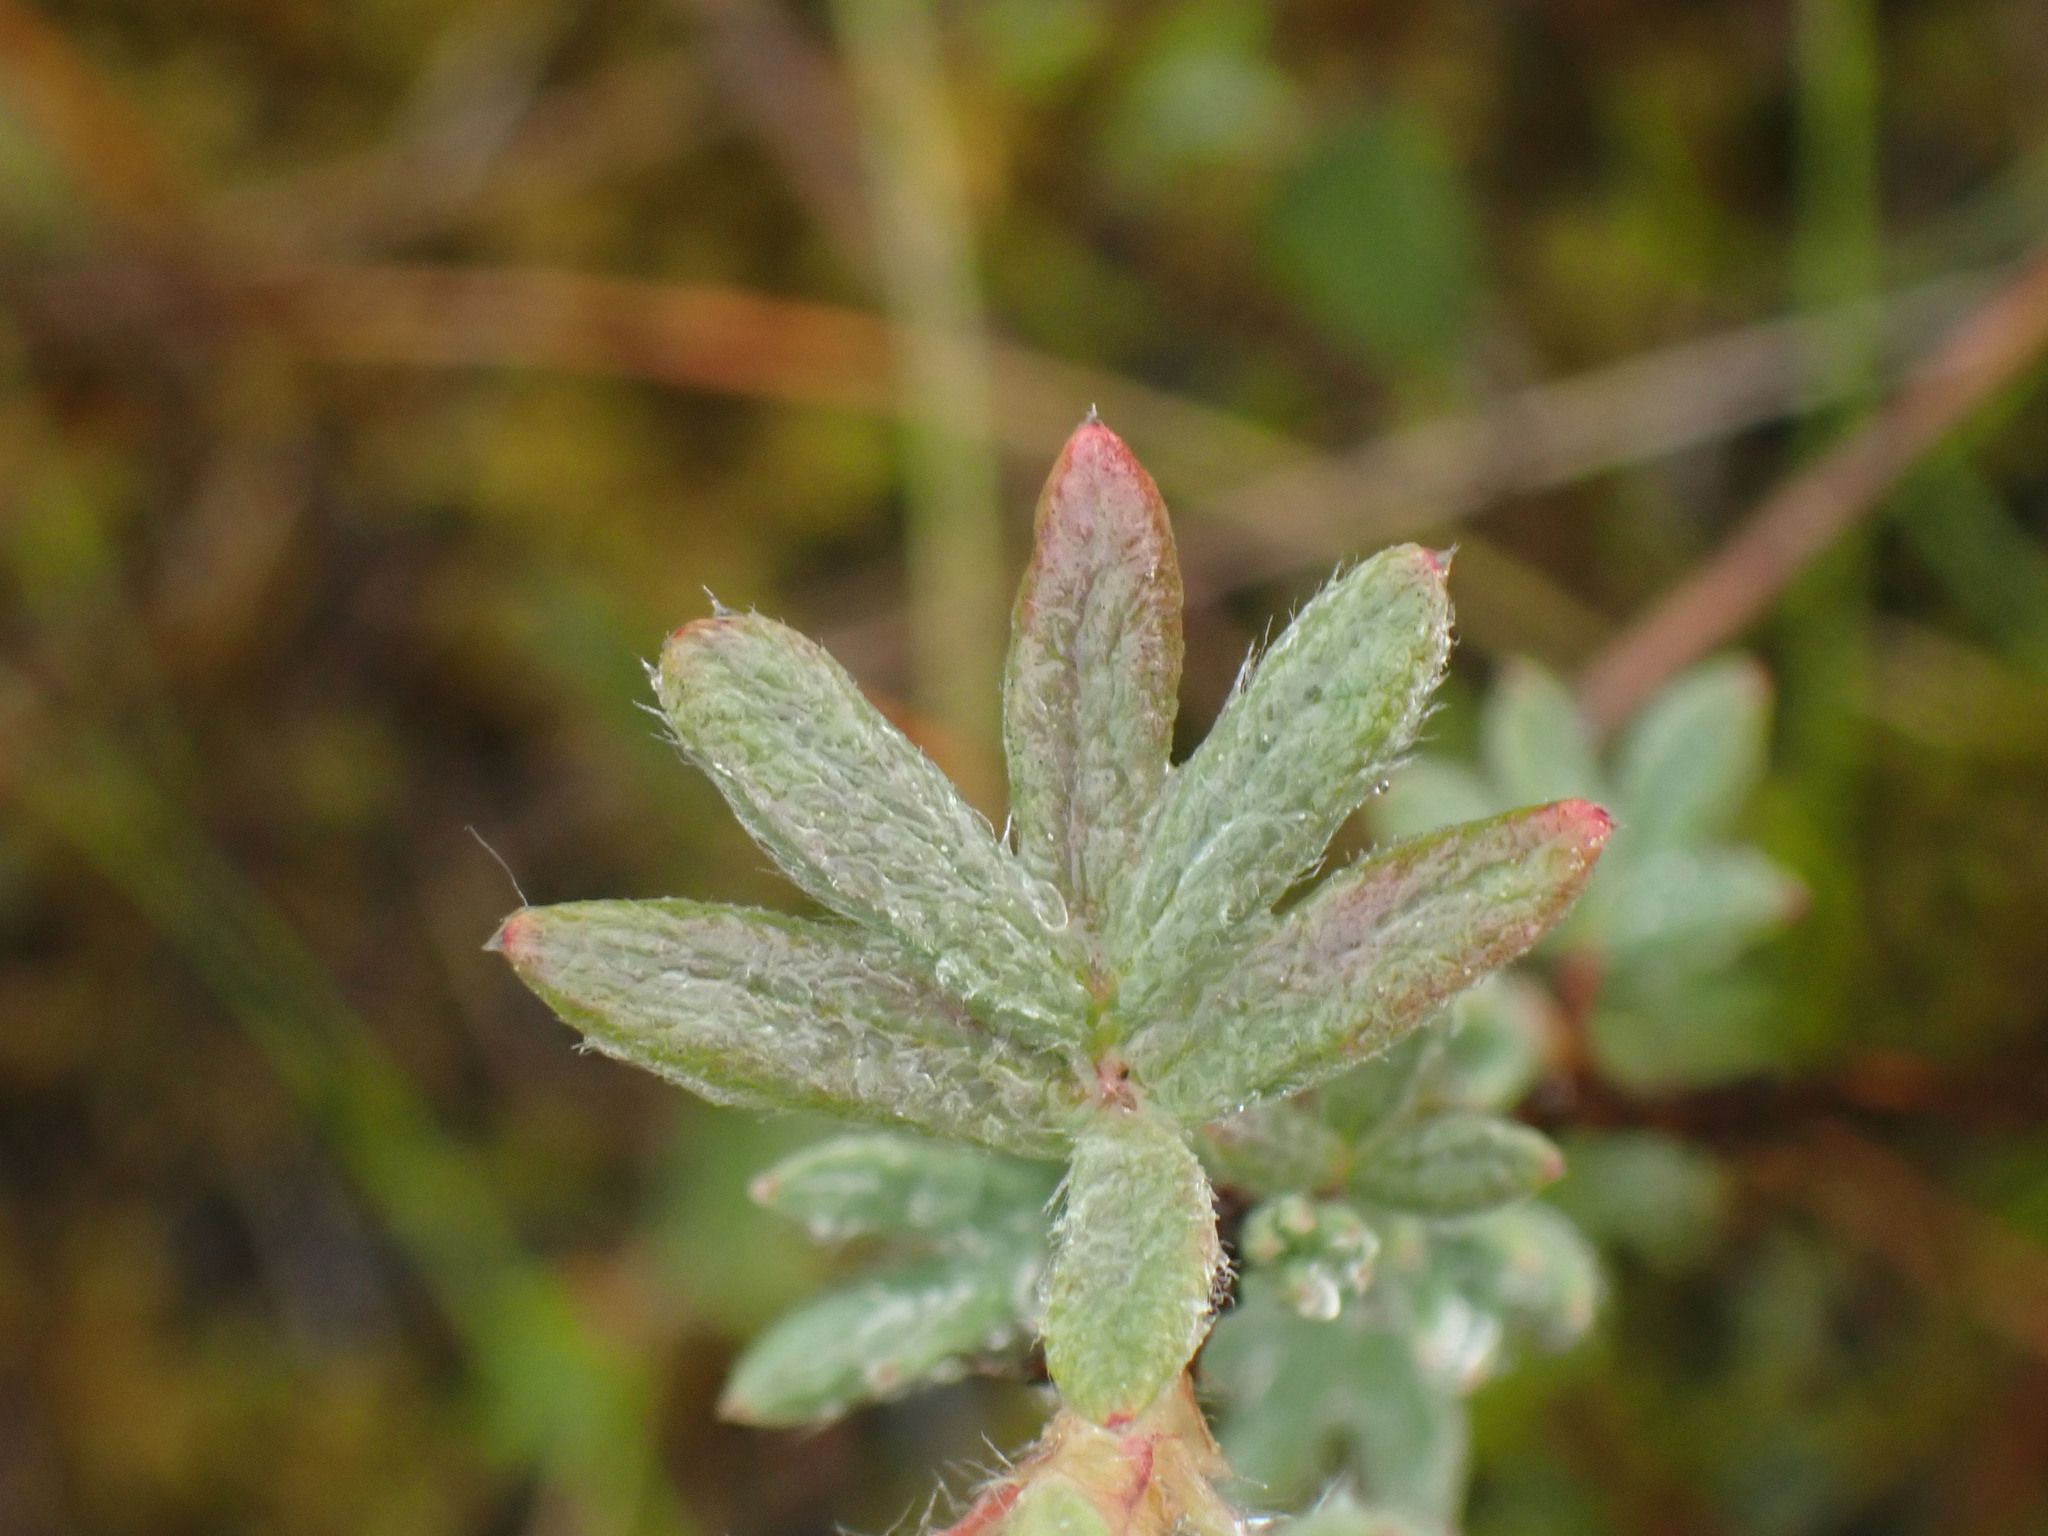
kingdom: Plantae
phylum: Tracheophyta
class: Magnoliopsida
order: Rosales
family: Rosaceae
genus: Dasiphora
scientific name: Dasiphora fruticosa
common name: Shrubby cinquefoil
